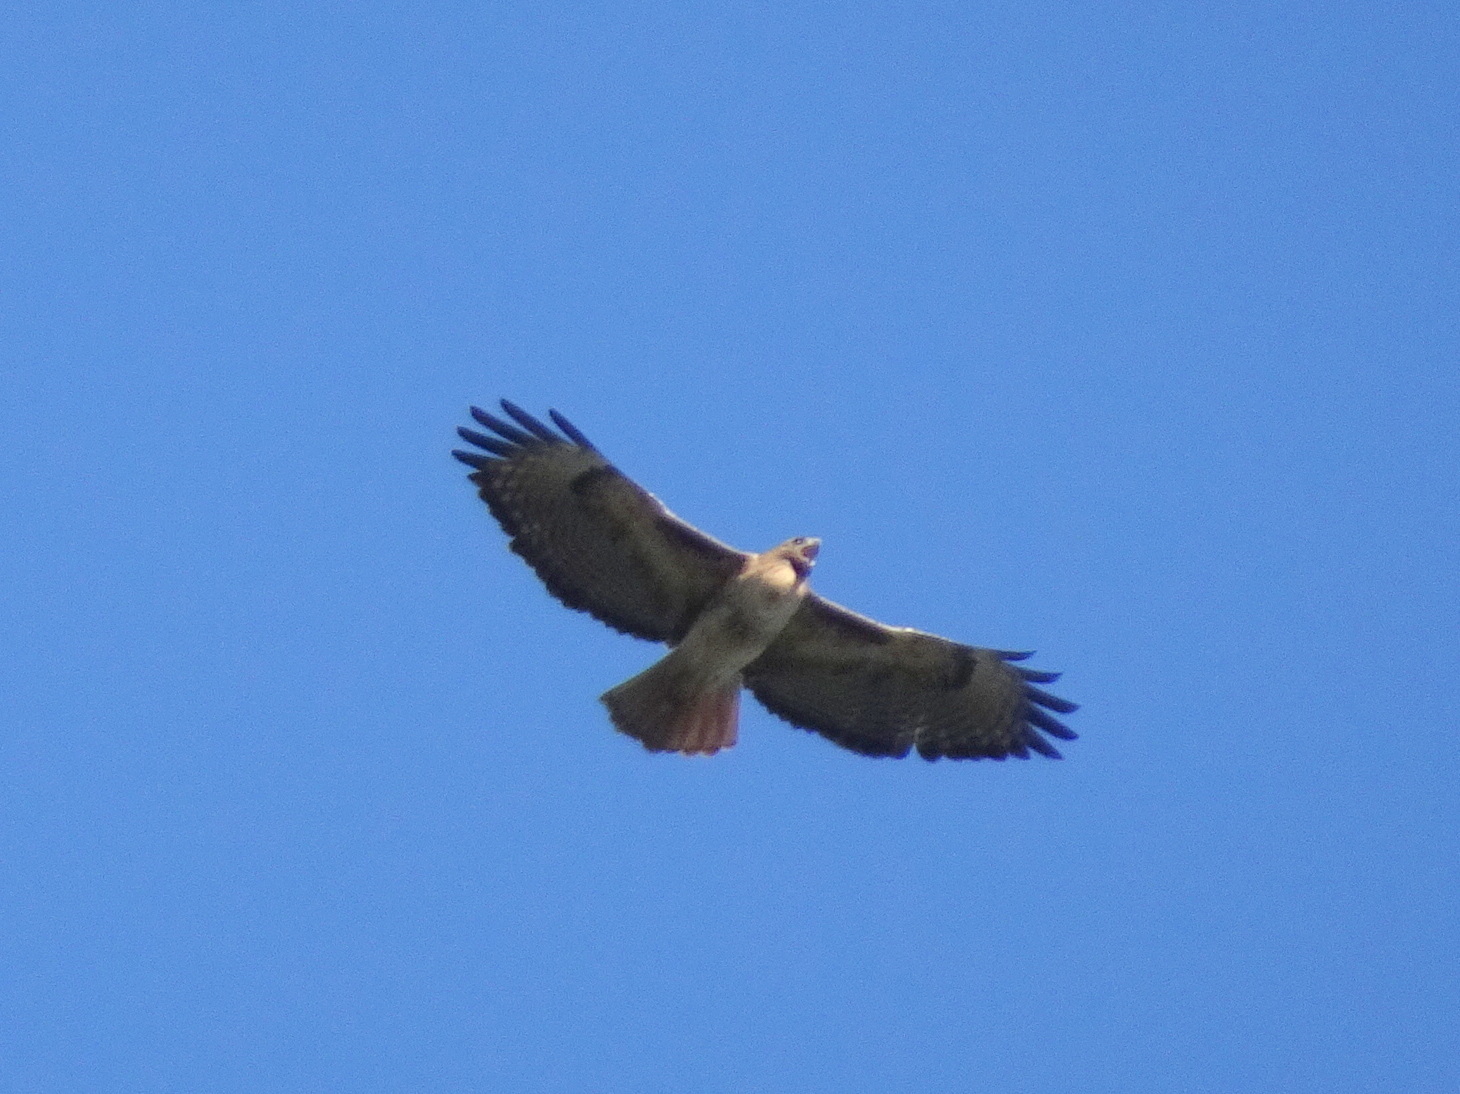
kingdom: Animalia
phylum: Chordata
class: Aves
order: Accipitriformes
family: Accipitridae
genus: Buteo
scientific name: Buteo jamaicensis
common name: Red-tailed hawk
